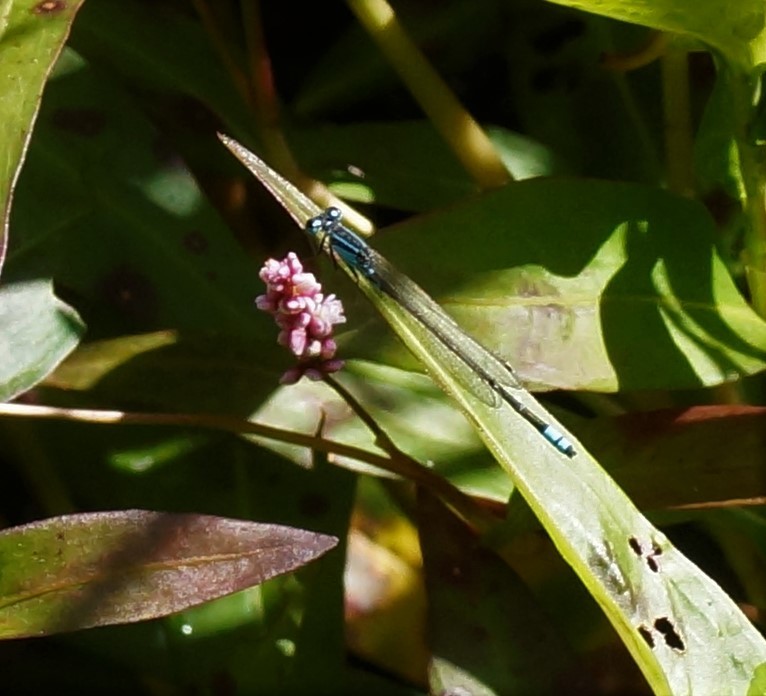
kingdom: Animalia
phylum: Arthropoda
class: Insecta
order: Odonata
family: Coenagrionidae
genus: Ischnura
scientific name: Ischnura heterosticta
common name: Common bluetail
